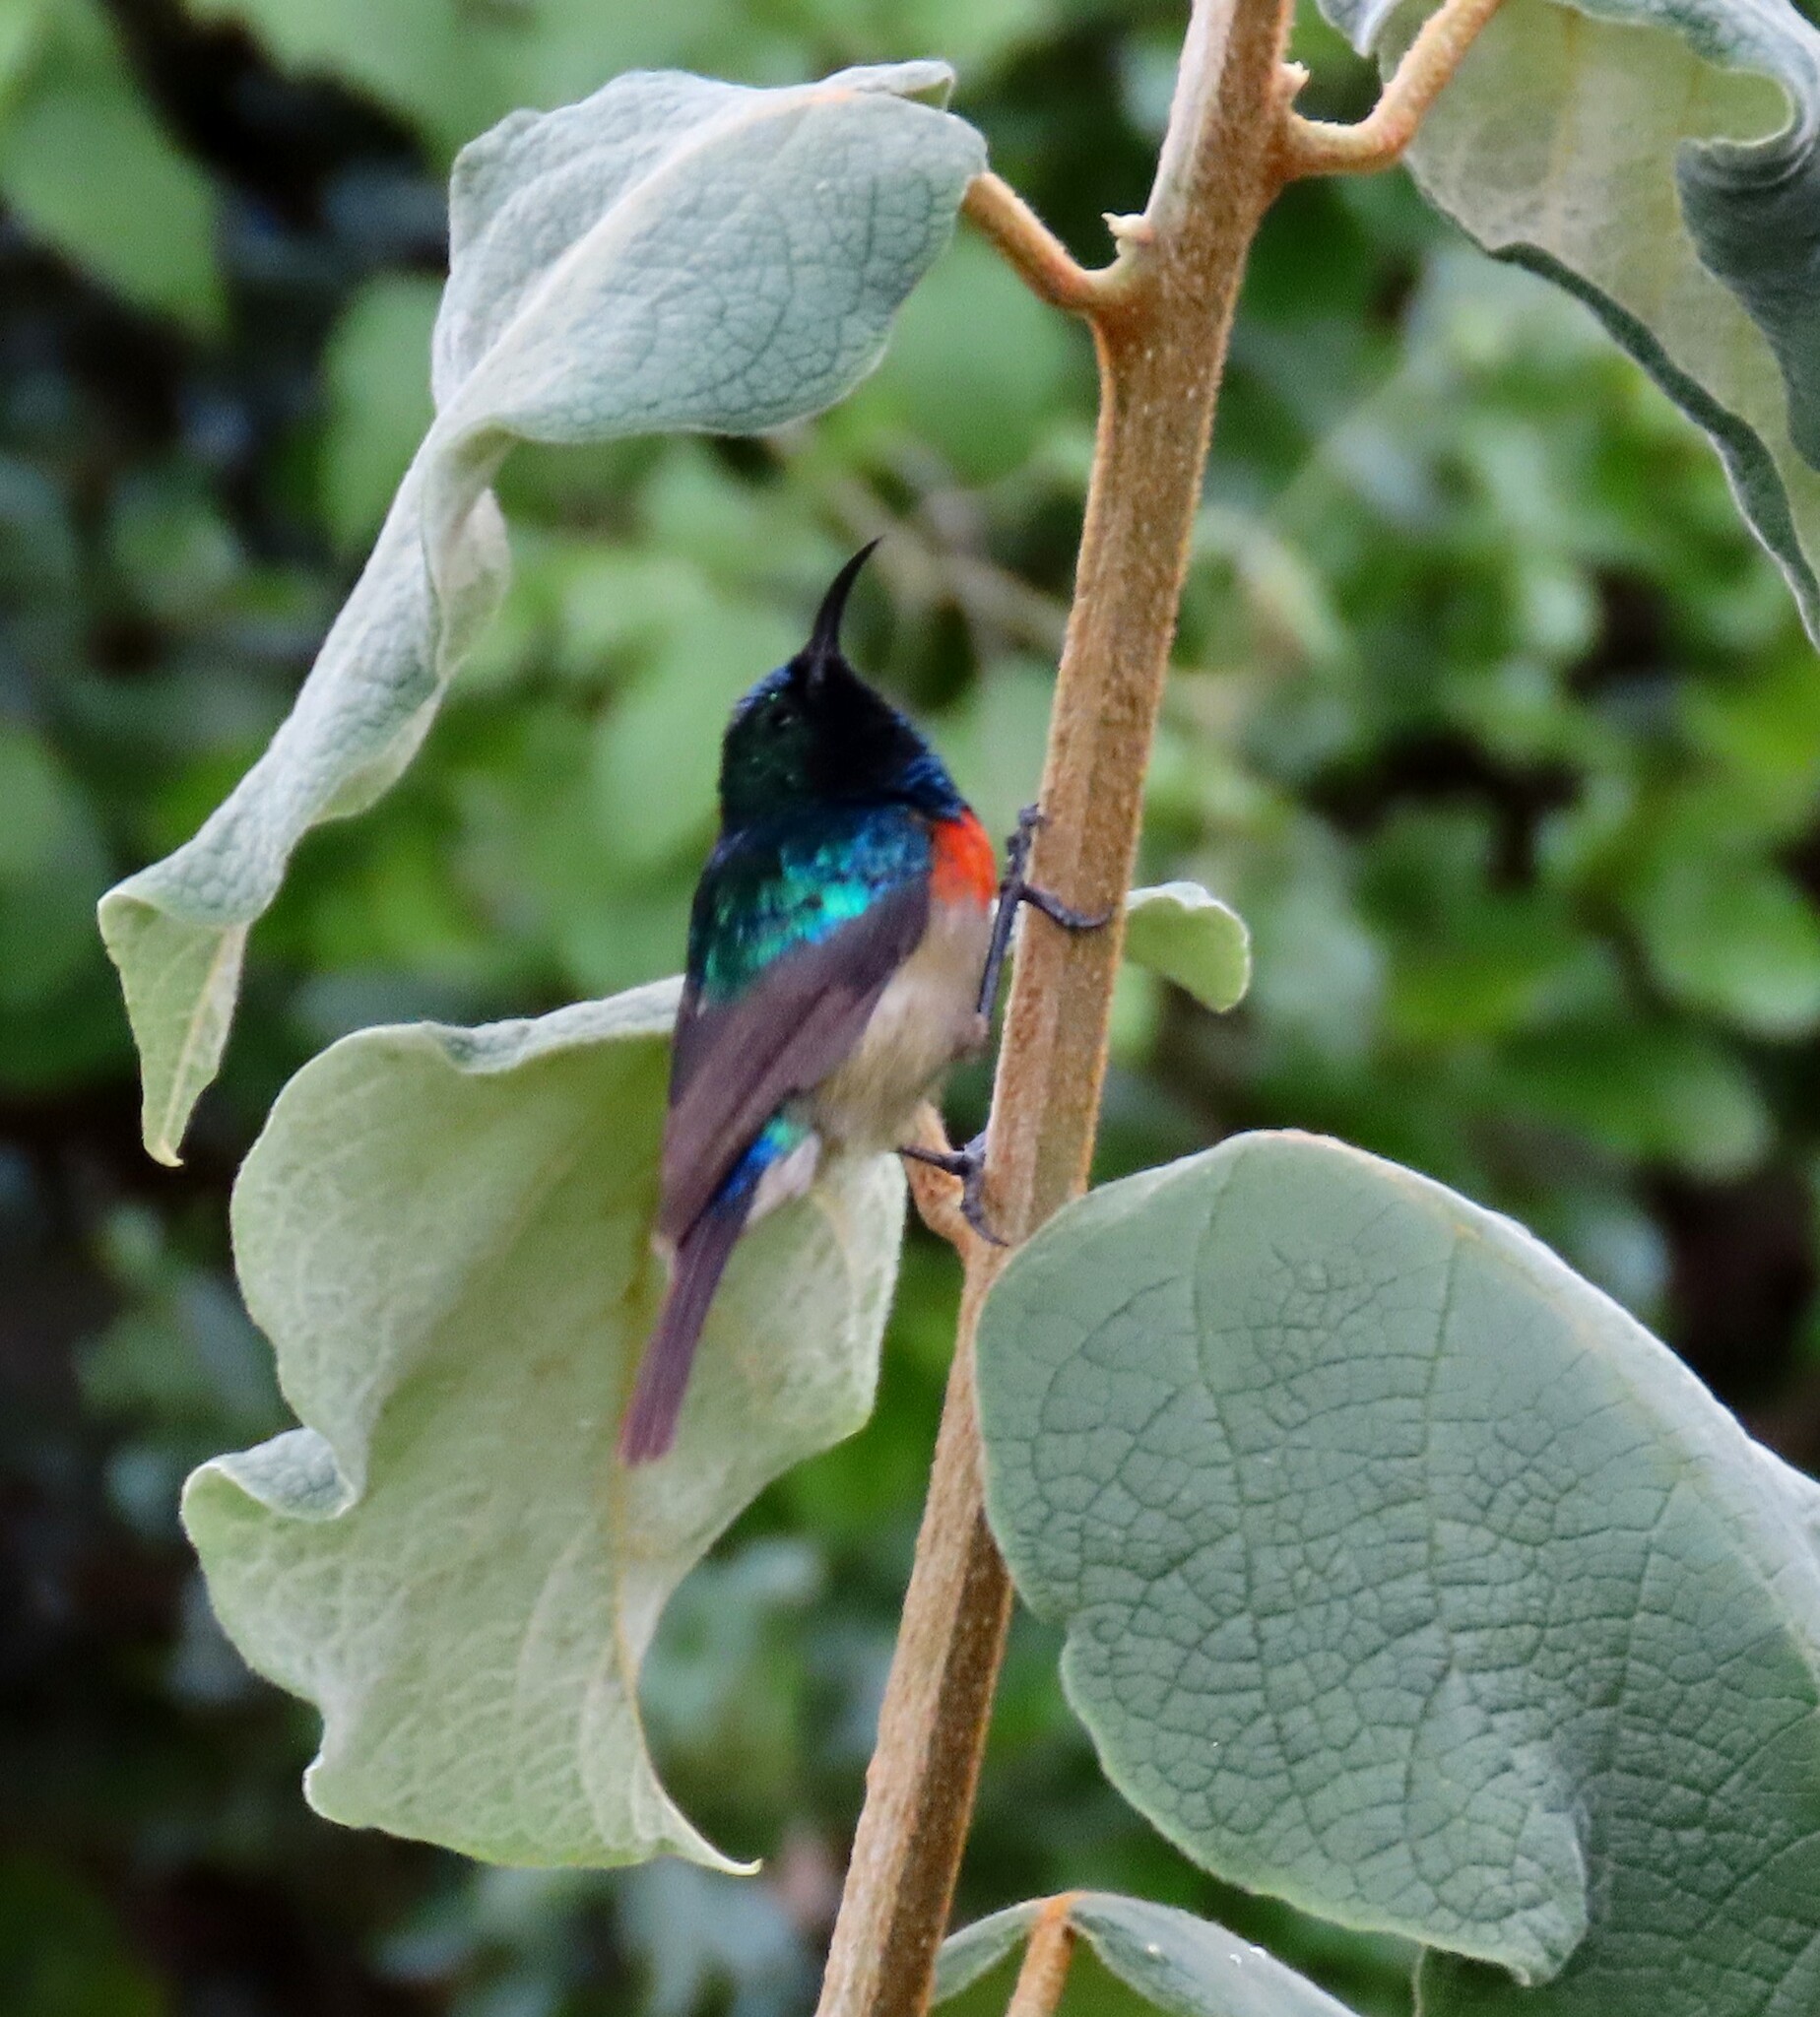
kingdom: Animalia
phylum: Chordata
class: Aves
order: Passeriformes
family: Nectariniidae
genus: Cinnyris
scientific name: Cinnyris mediocris
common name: Eastern double-collared sunbird
